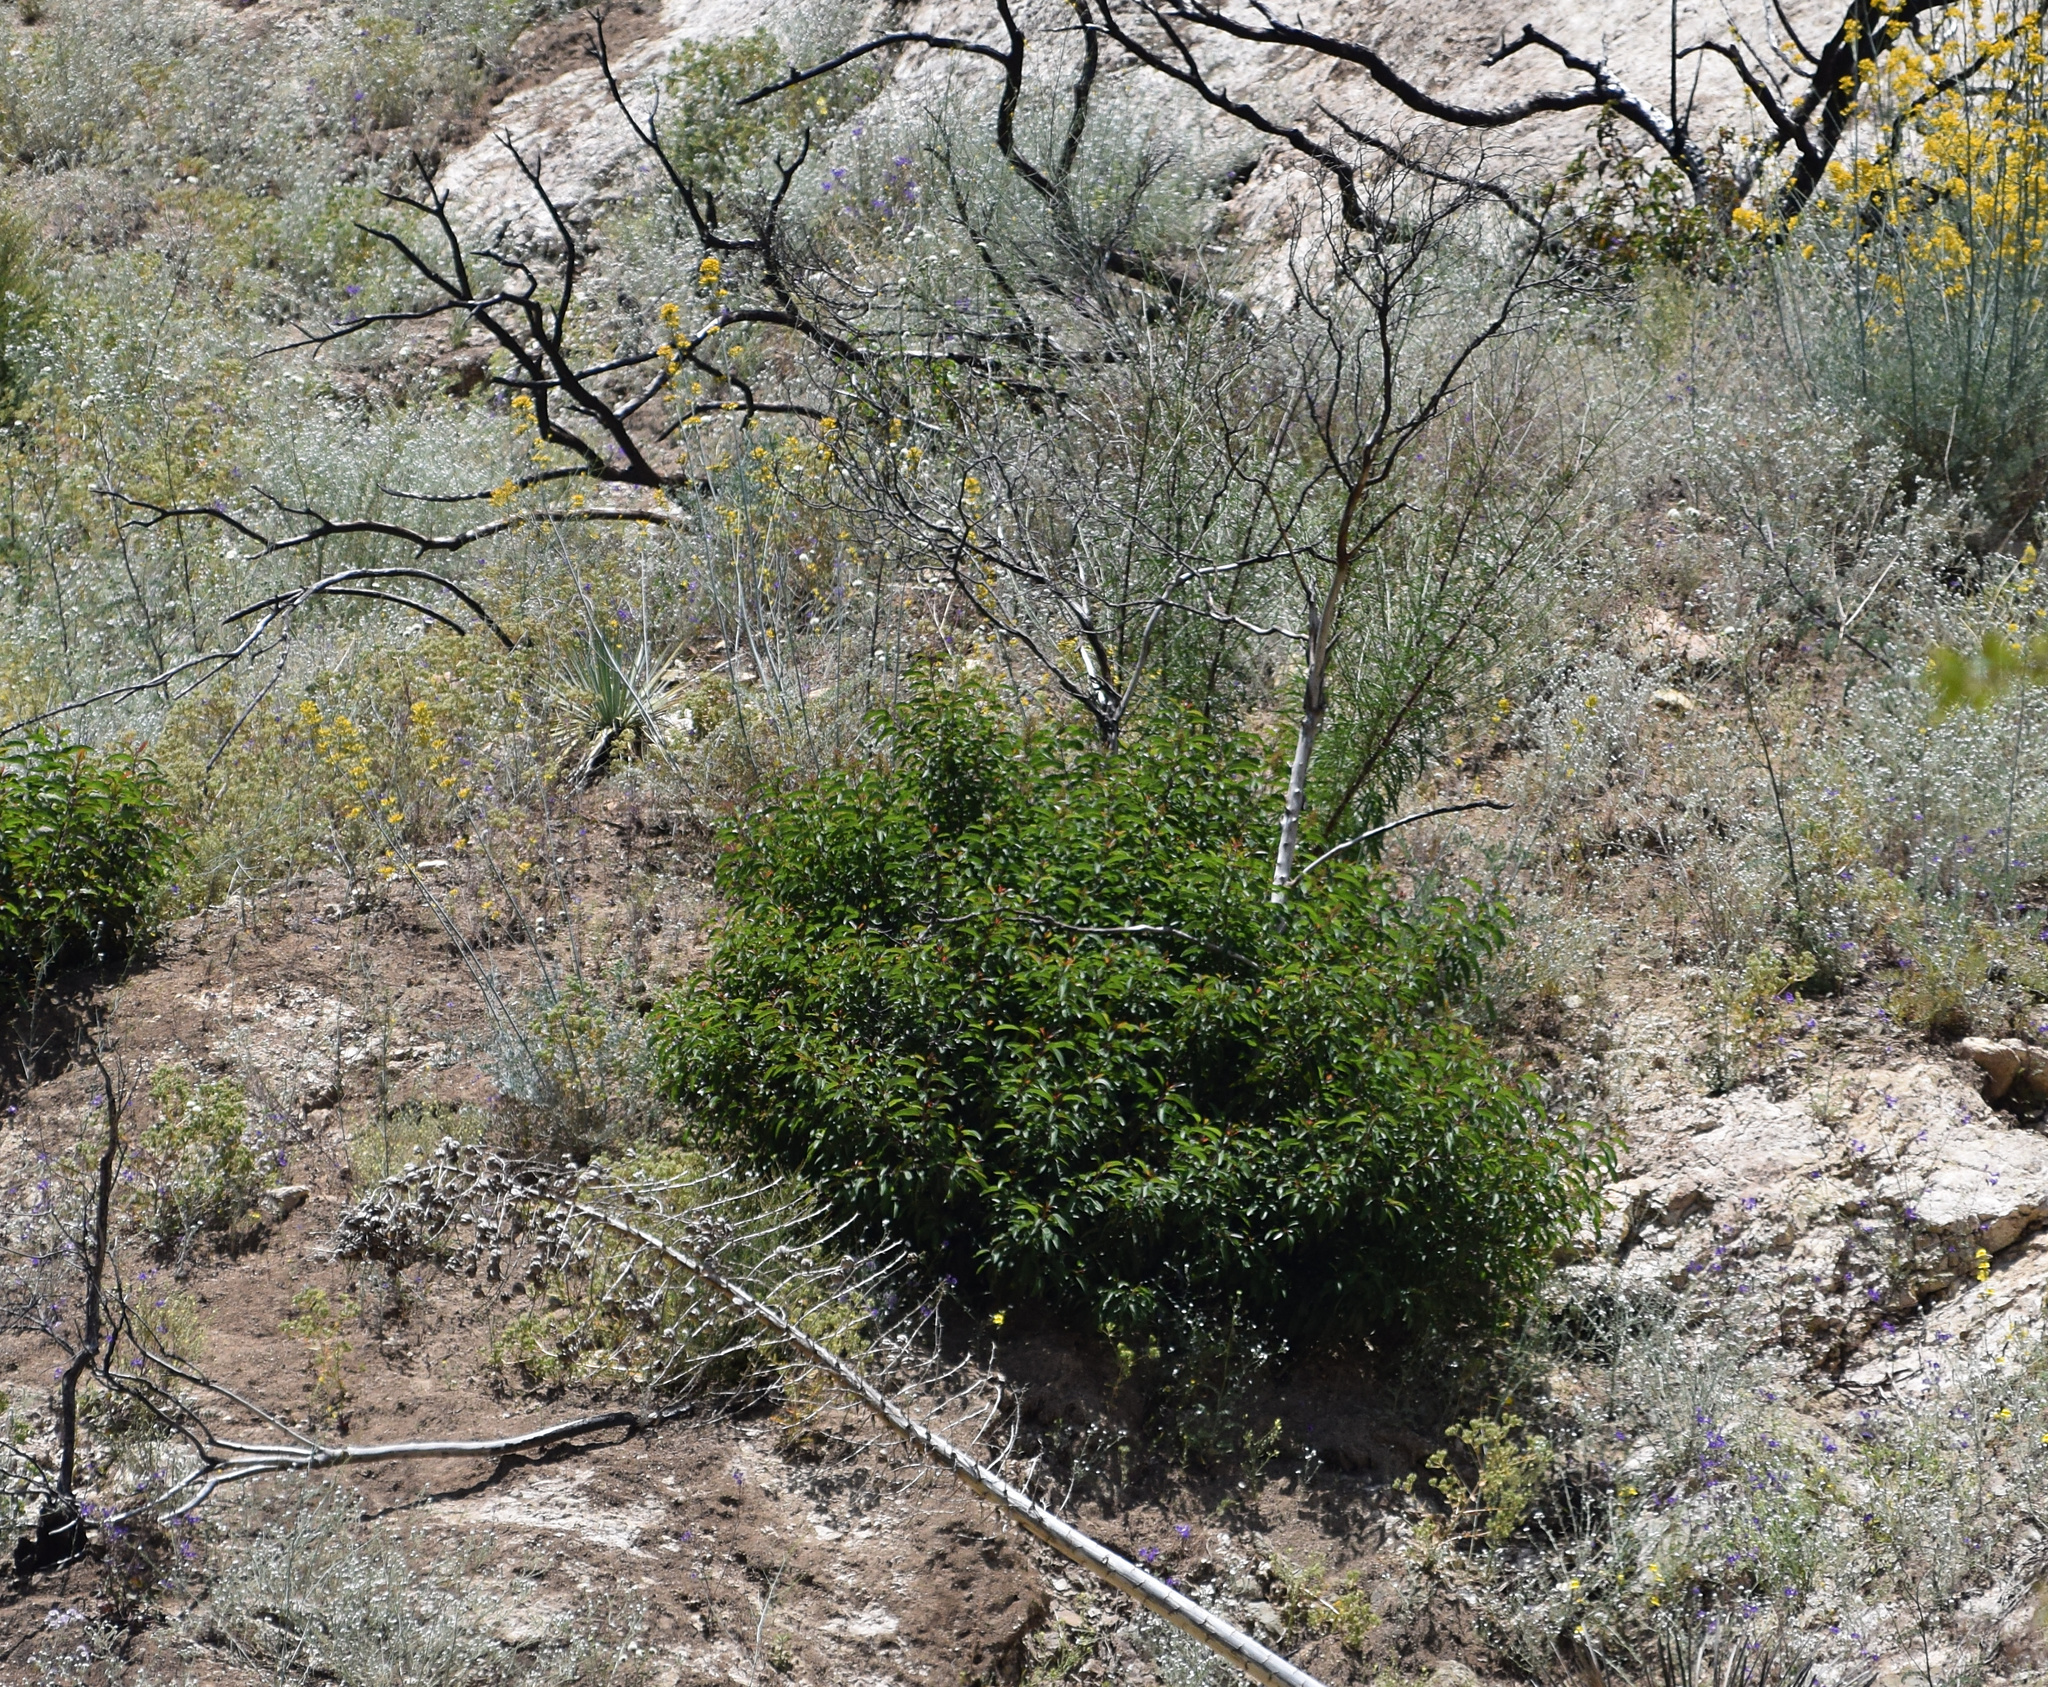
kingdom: Plantae
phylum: Tracheophyta
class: Magnoliopsida
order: Sapindales
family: Anacardiaceae
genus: Malosma
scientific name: Malosma laurina
